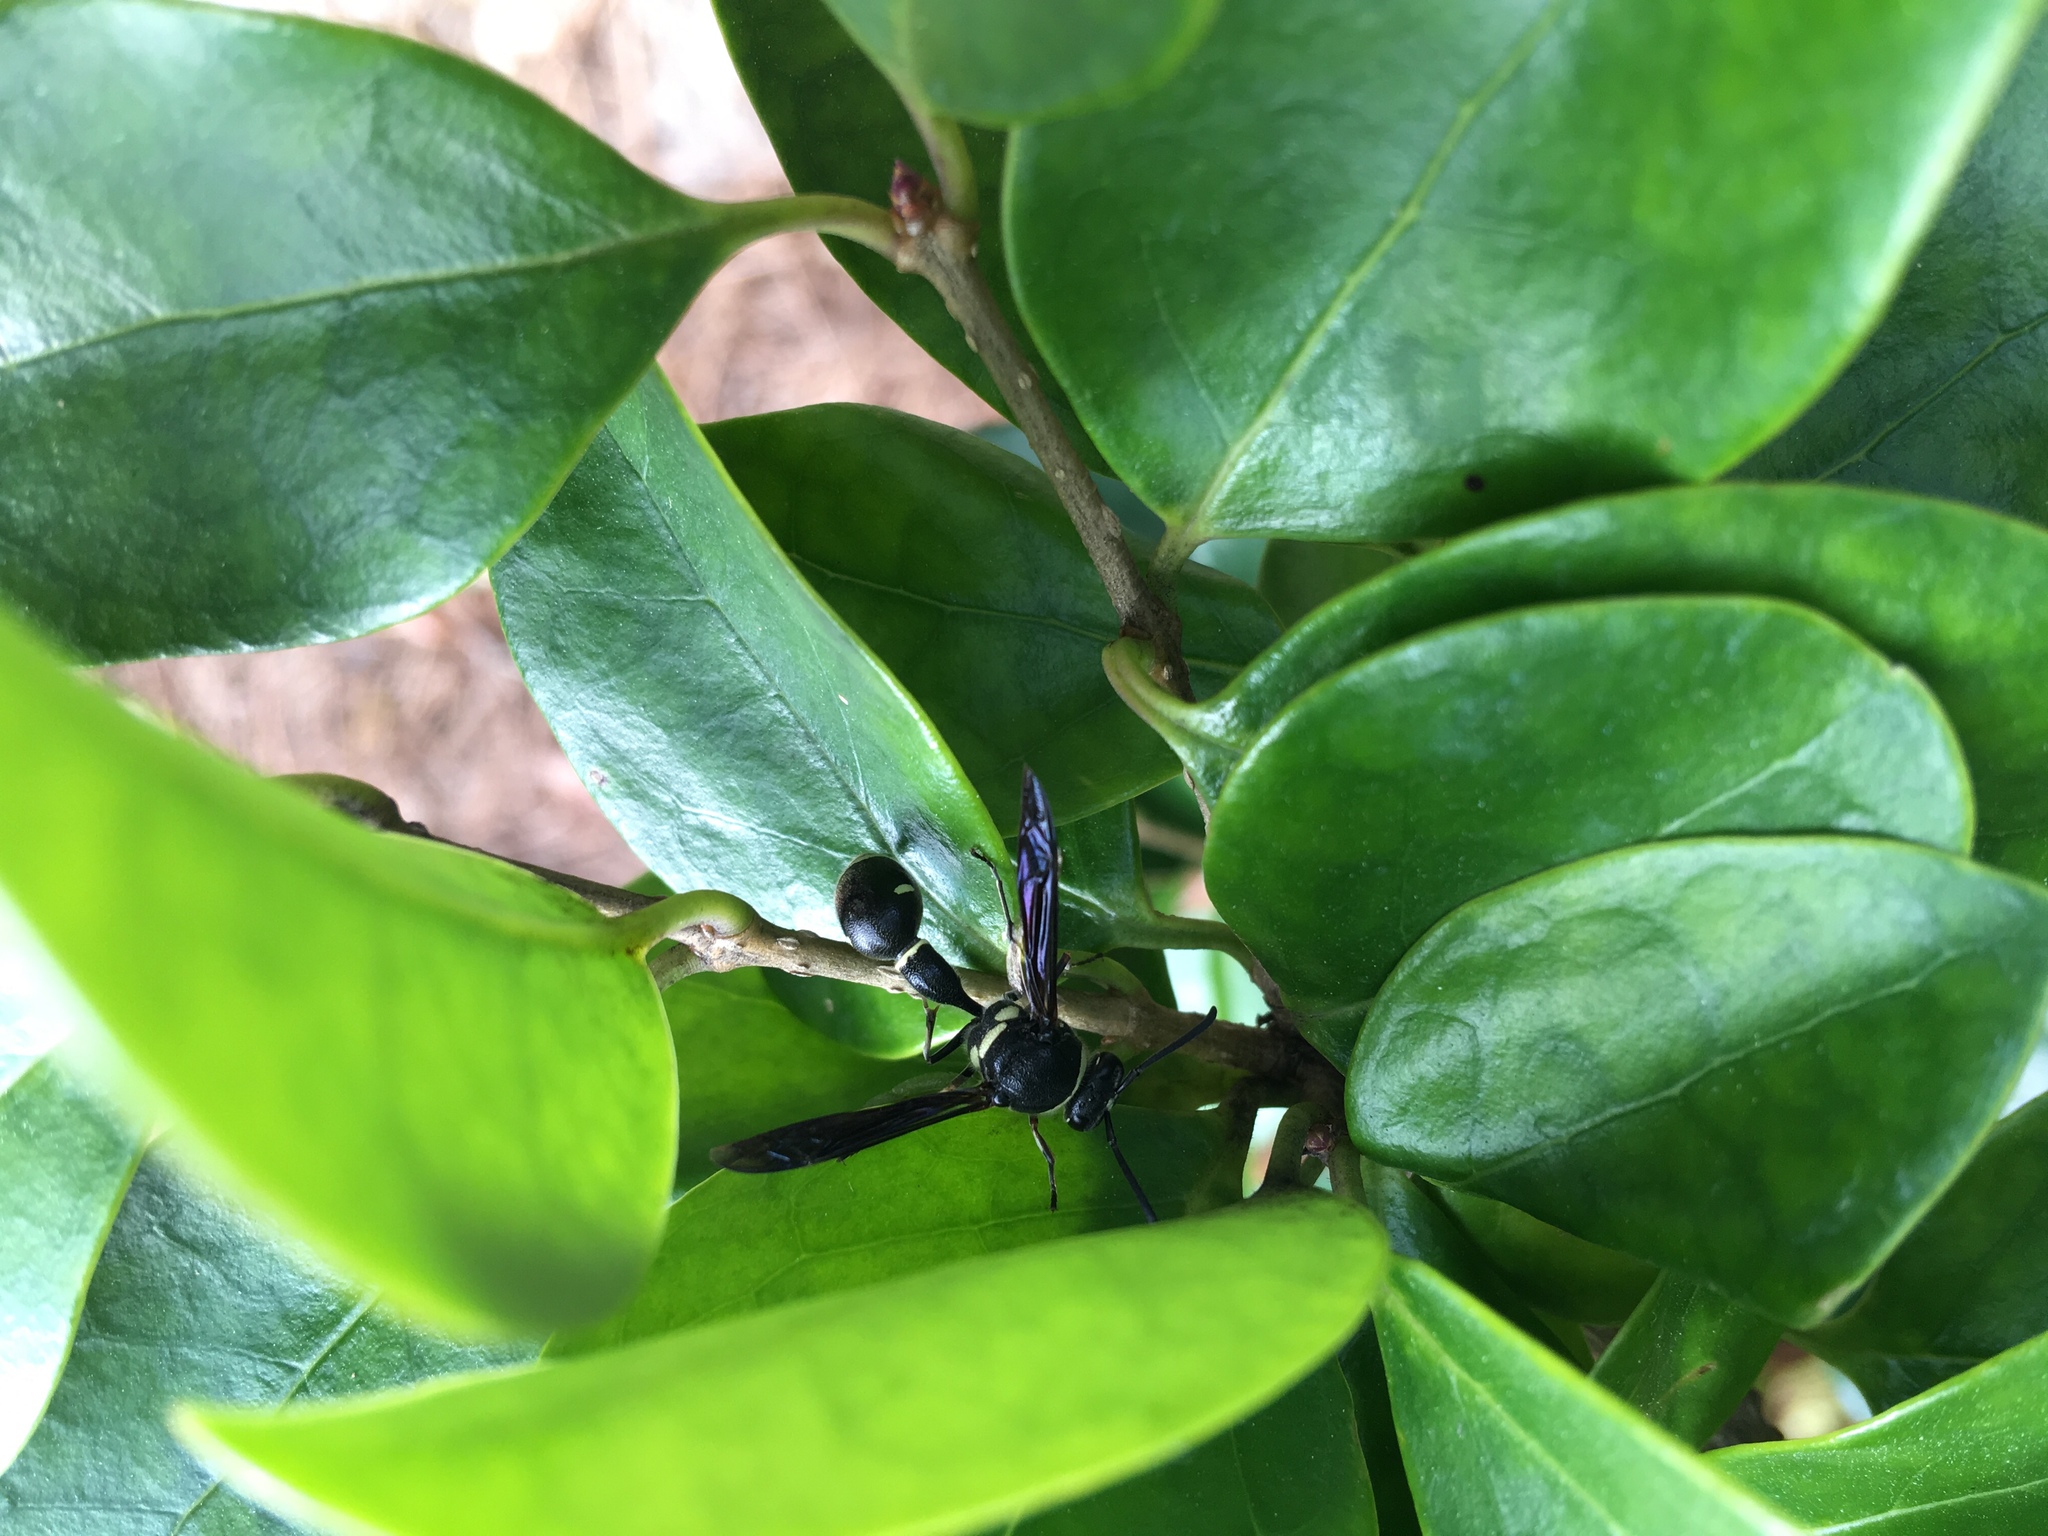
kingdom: Animalia
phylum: Arthropoda
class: Insecta
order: Hymenoptera
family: Vespidae
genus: Eumenes
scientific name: Eumenes fraternus
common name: Fraternal potter wasp
